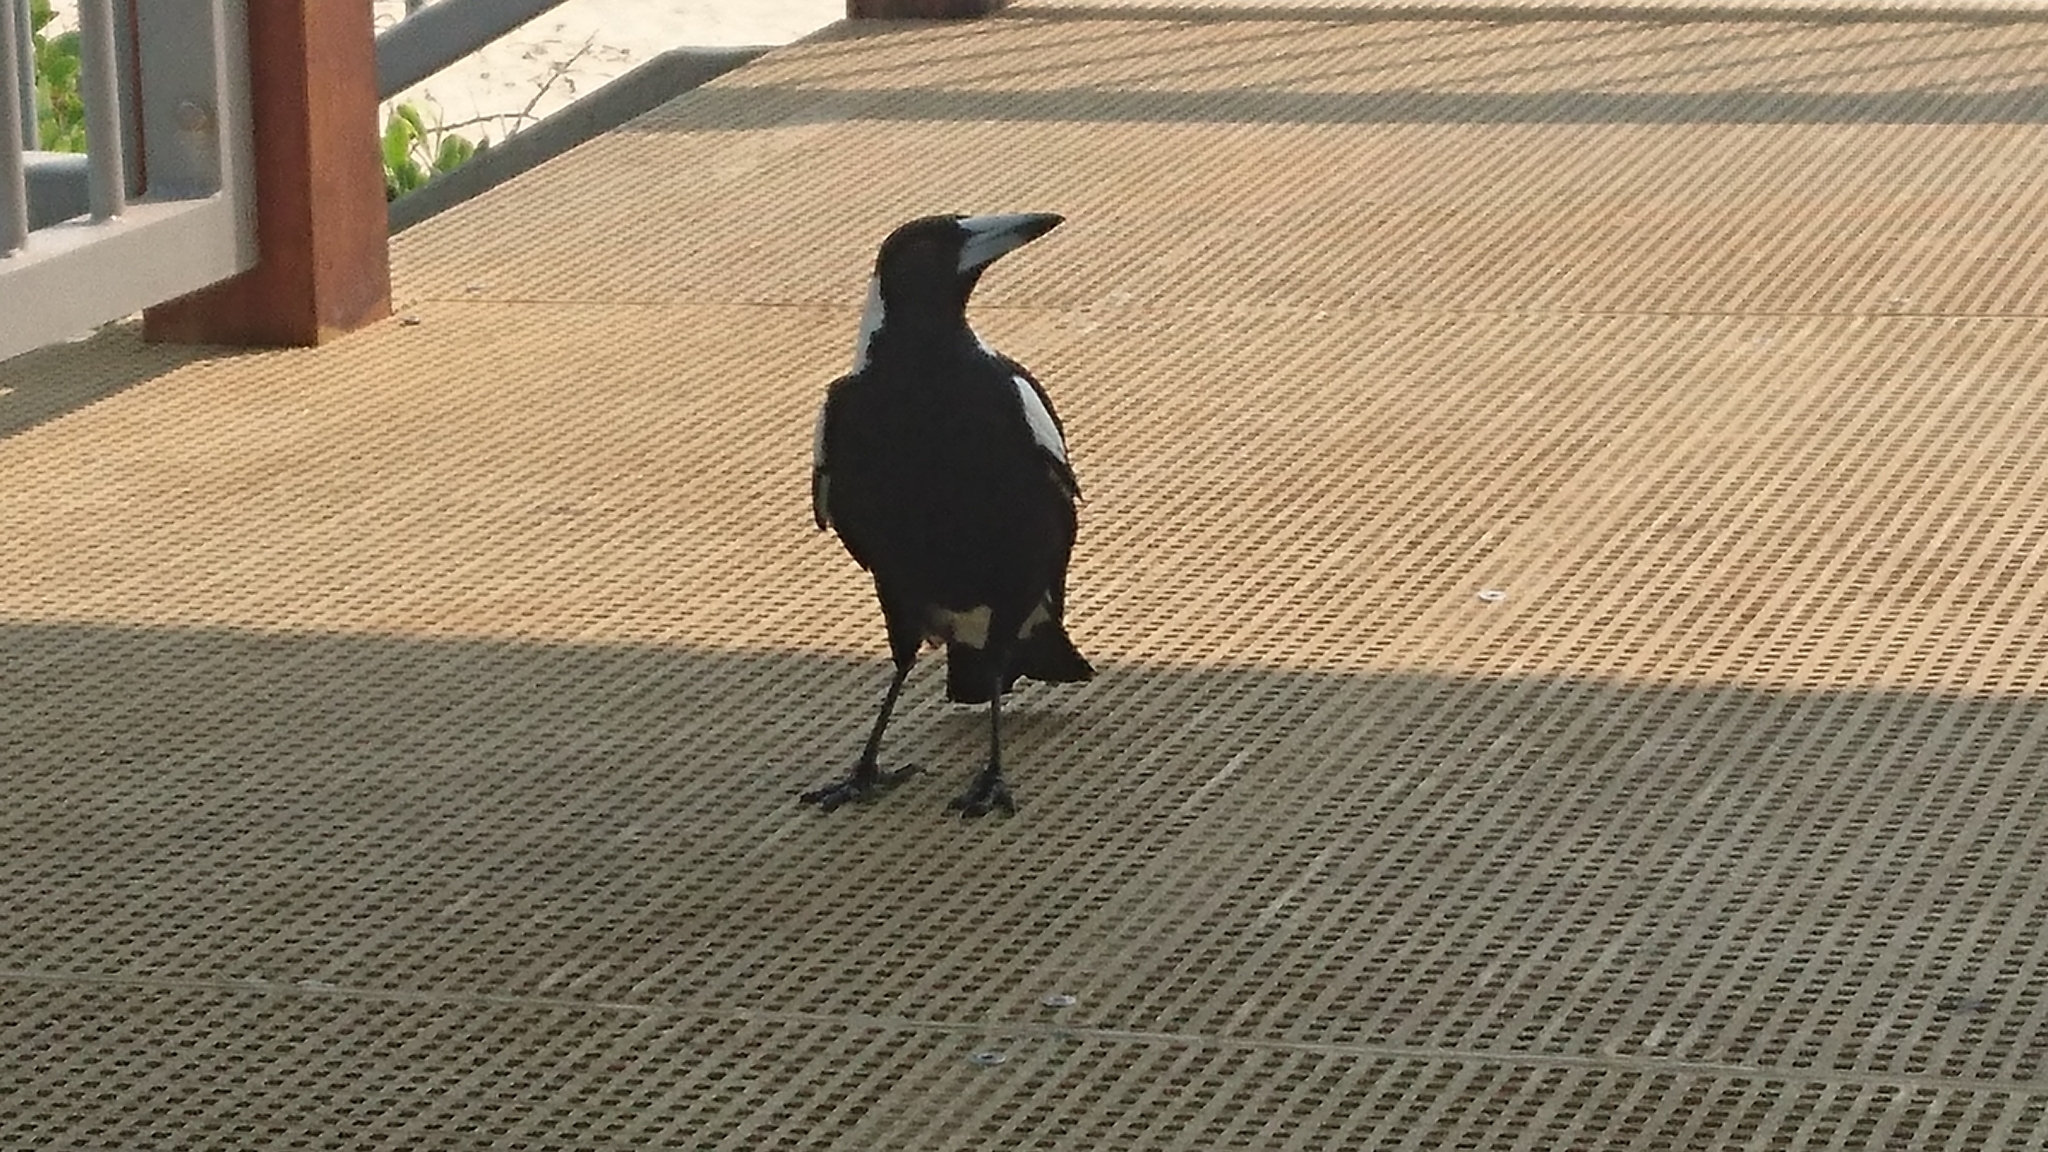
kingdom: Animalia
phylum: Chordata
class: Aves
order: Passeriformes
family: Cracticidae
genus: Gymnorhina
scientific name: Gymnorhina tibicen
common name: Australian magpie
